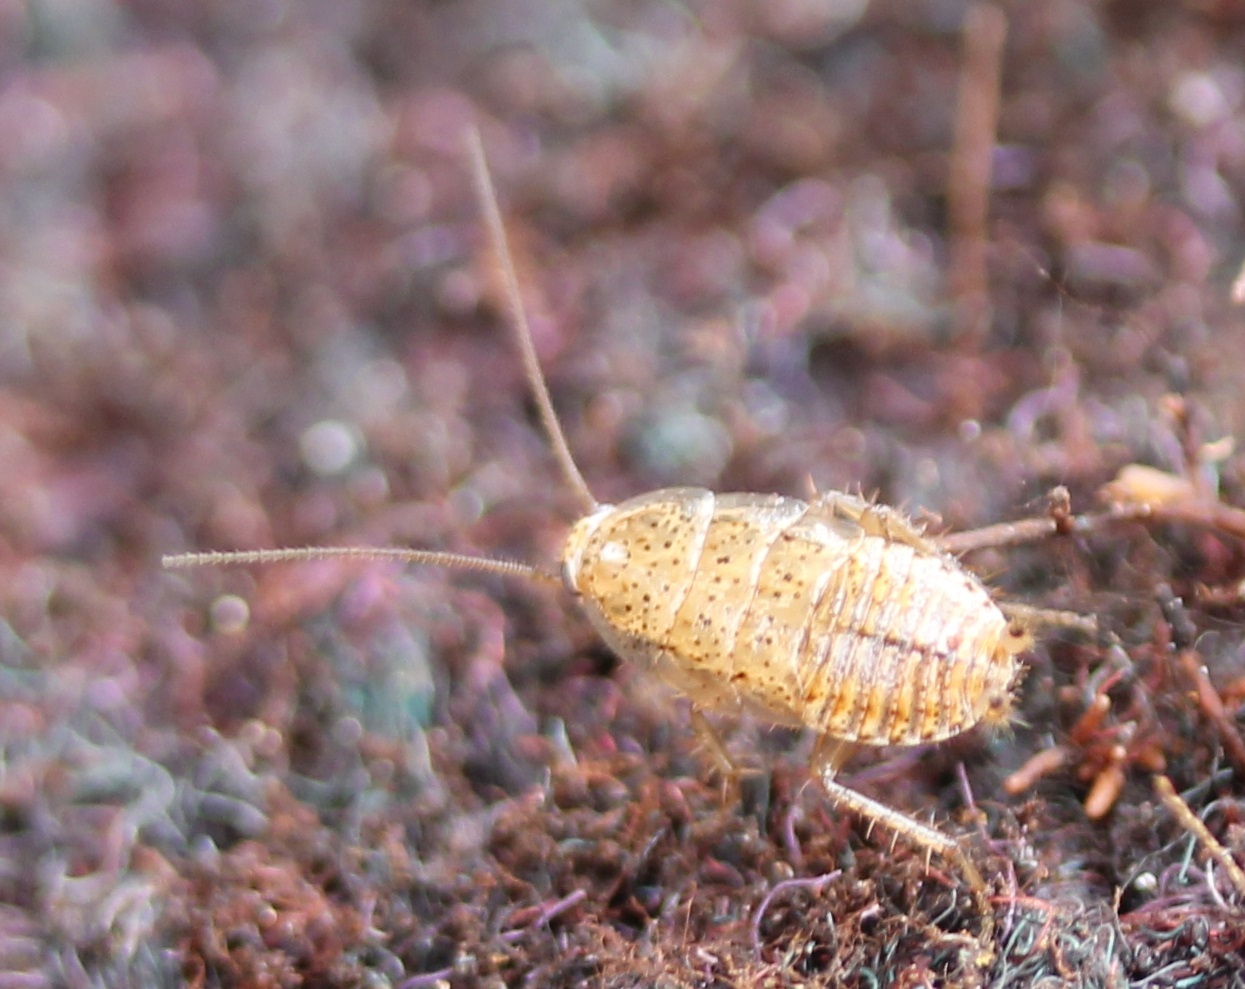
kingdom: Animalia
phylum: Arthropoda
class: Insecta
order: Blattodea
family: Ectobiidae
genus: Ectobius
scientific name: Ectobius pallidus
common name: Tawny cockroach
